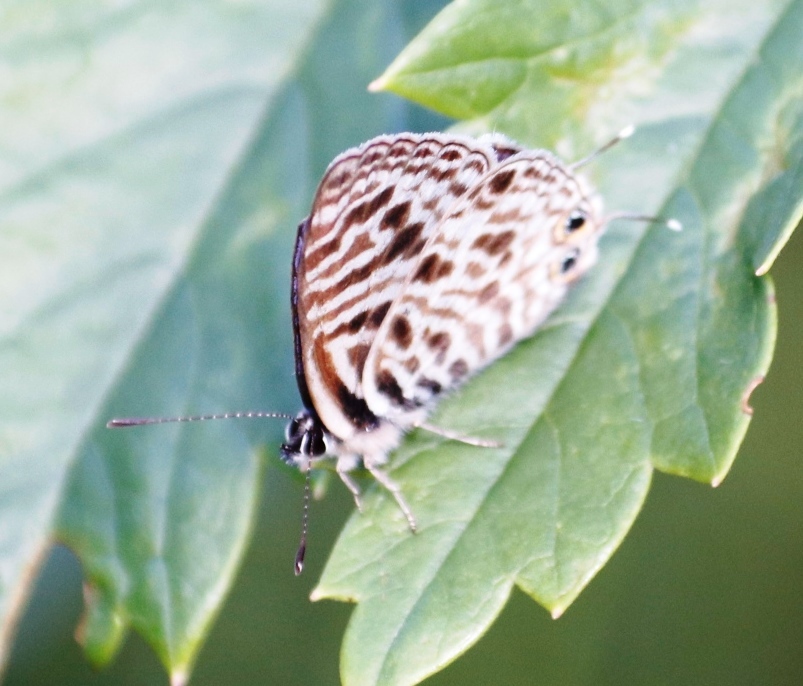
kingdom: Animalia
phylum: Arthropoda
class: Insecta
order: Lepidoptera
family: Lycaenidae
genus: Leptotes
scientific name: Leptotes
